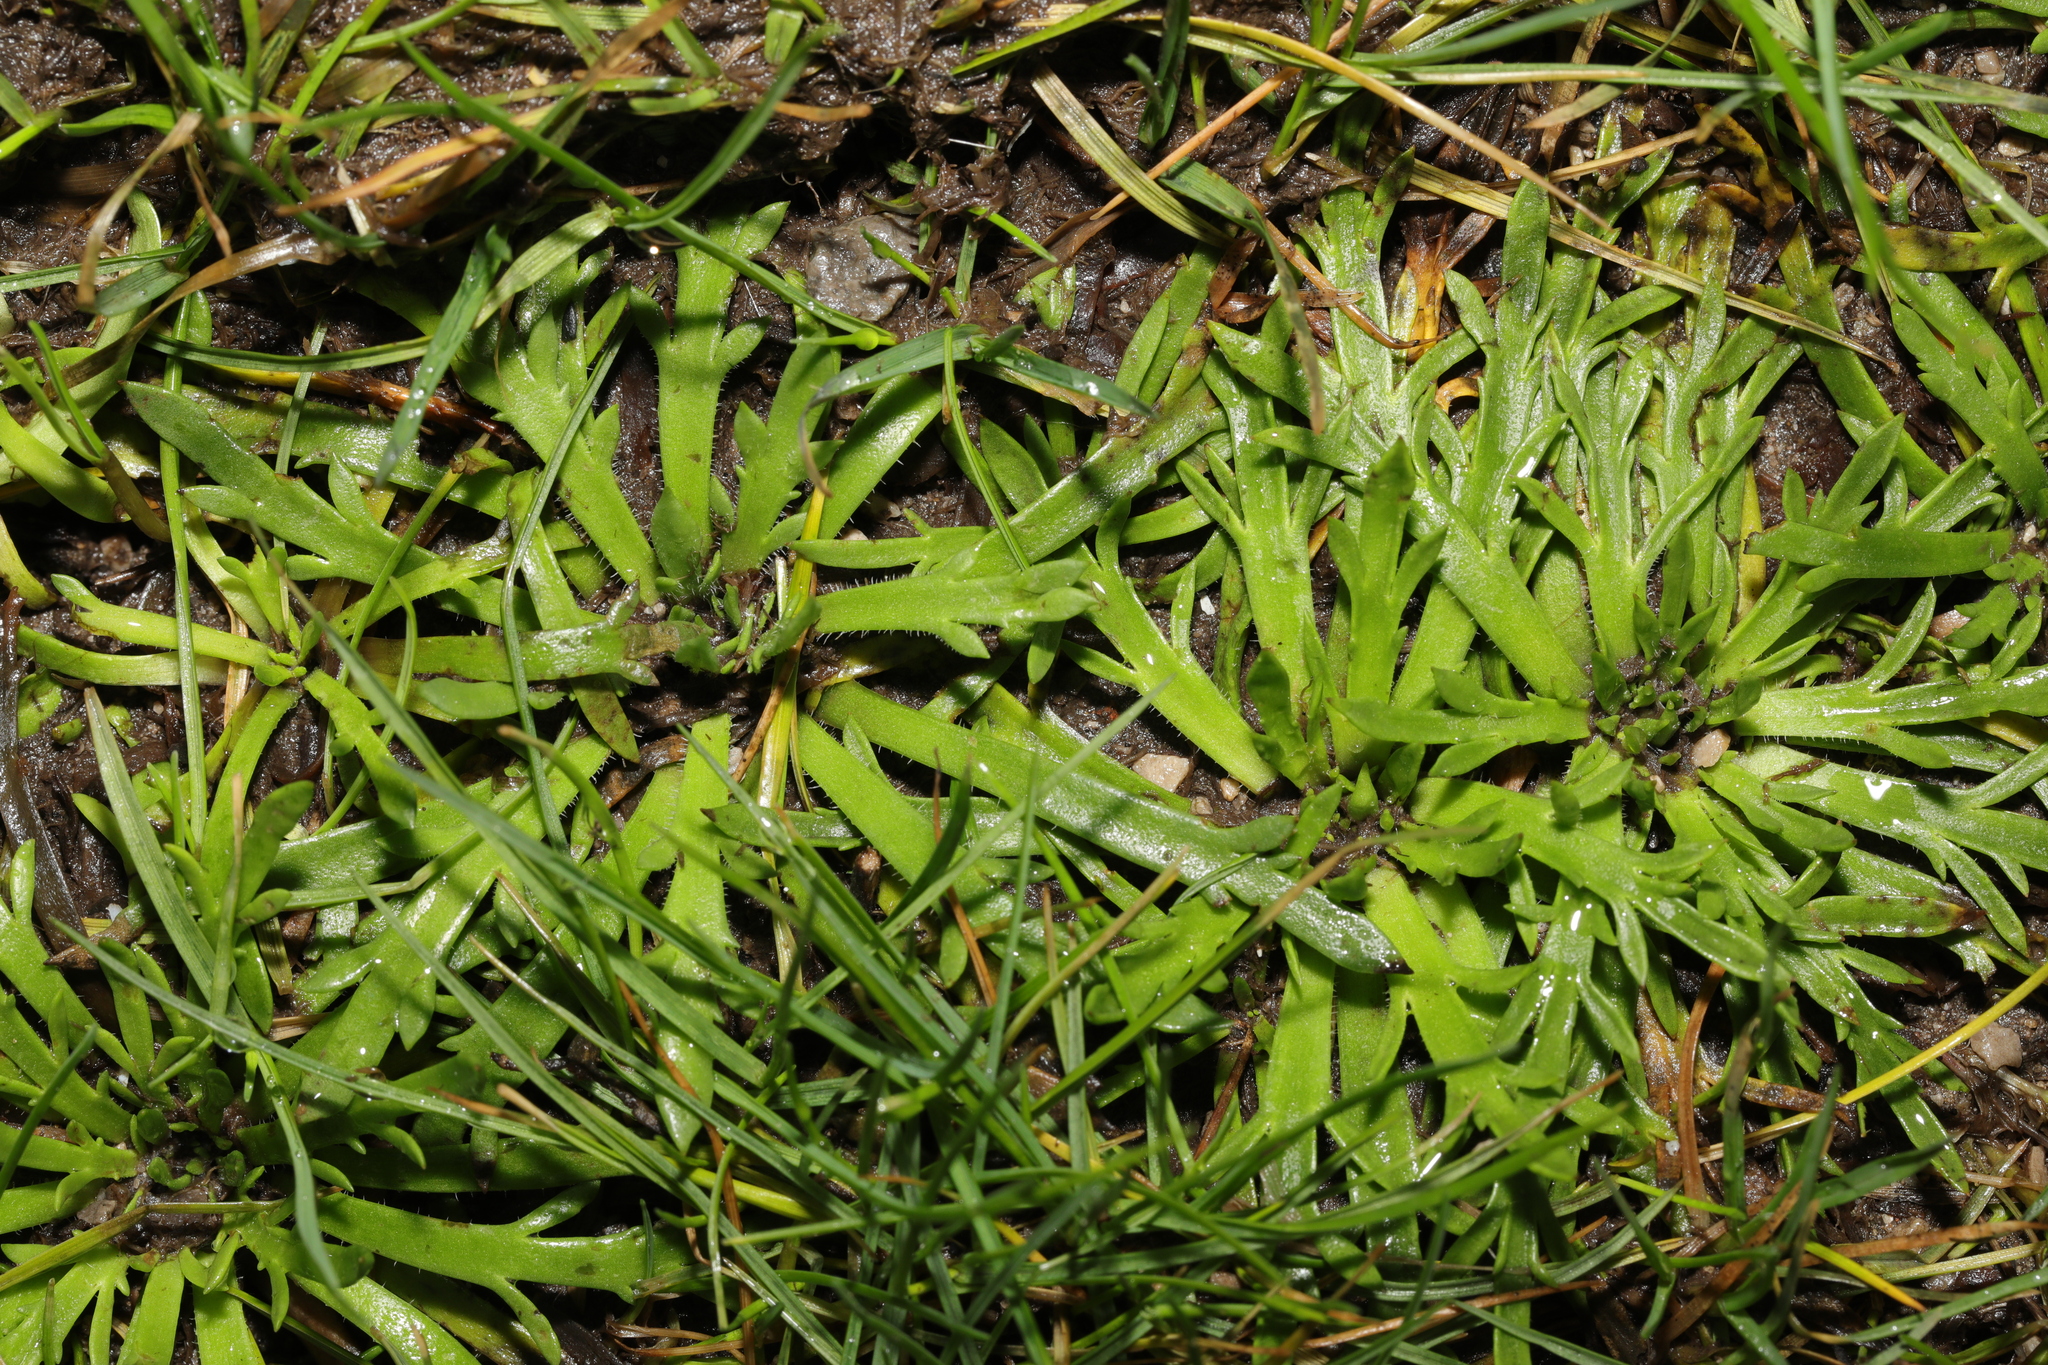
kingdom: Plantae
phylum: Tracheophyta
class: Magnoliopsida
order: Lamiales
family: Plantaginaceae
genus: Plantago
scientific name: Plantago coronopus
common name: Buck's-horn plantain
